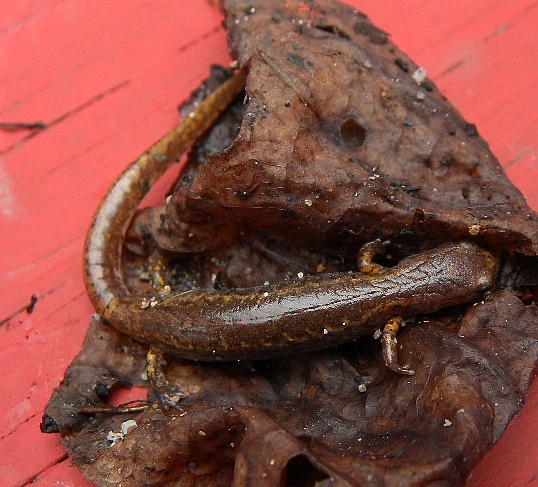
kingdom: Animalia
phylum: Chordata
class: Amphibia
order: Caudata
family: Plethodontidae
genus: Hemidactylium
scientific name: Hemidactylium scutatum
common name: Four-toed salamander
